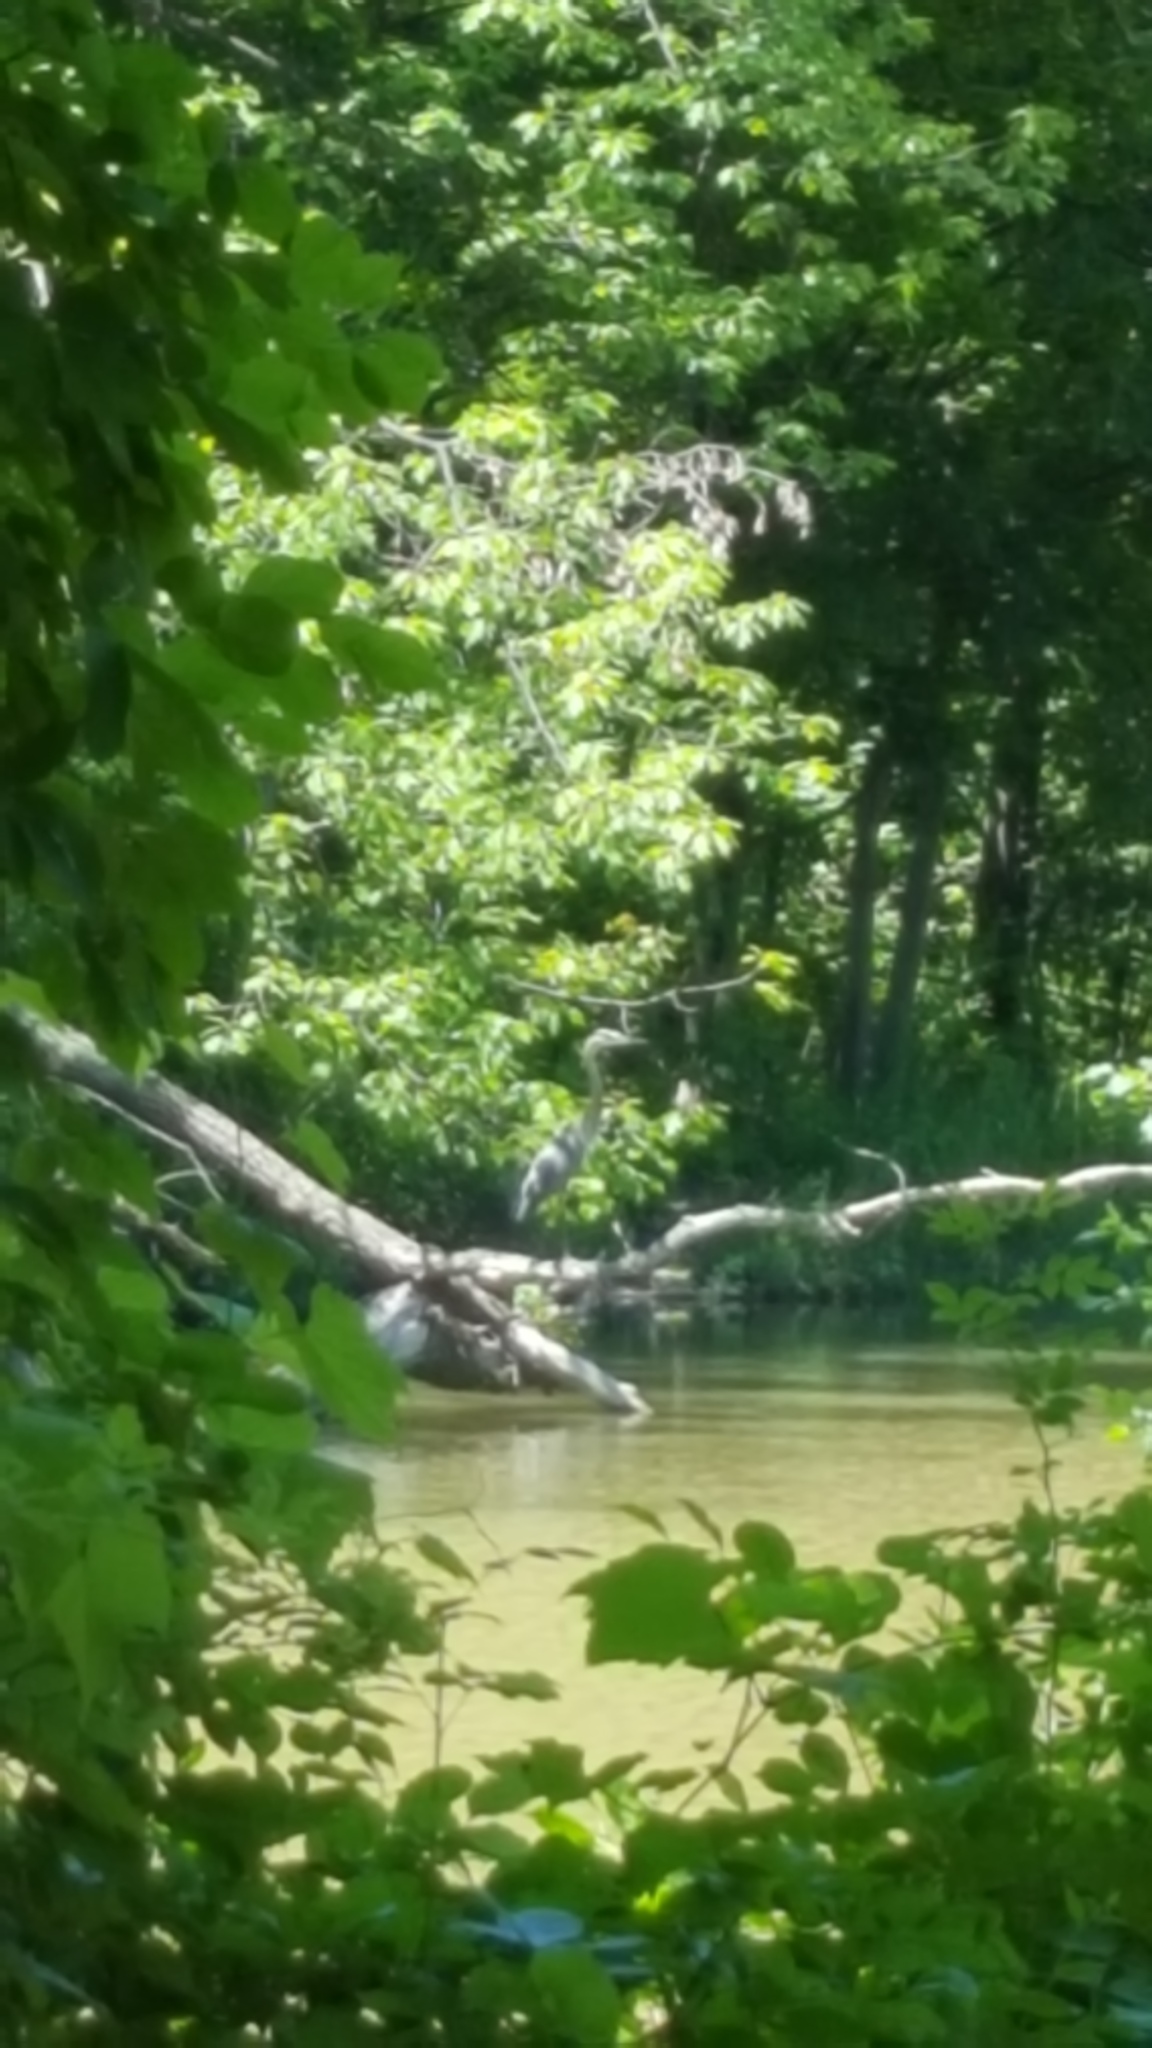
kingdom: Animalia
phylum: Chordata
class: Aves
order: Pelecaniformes
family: Ardeidae
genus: Ardea
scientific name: Ardea herodias
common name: Great blue heron
